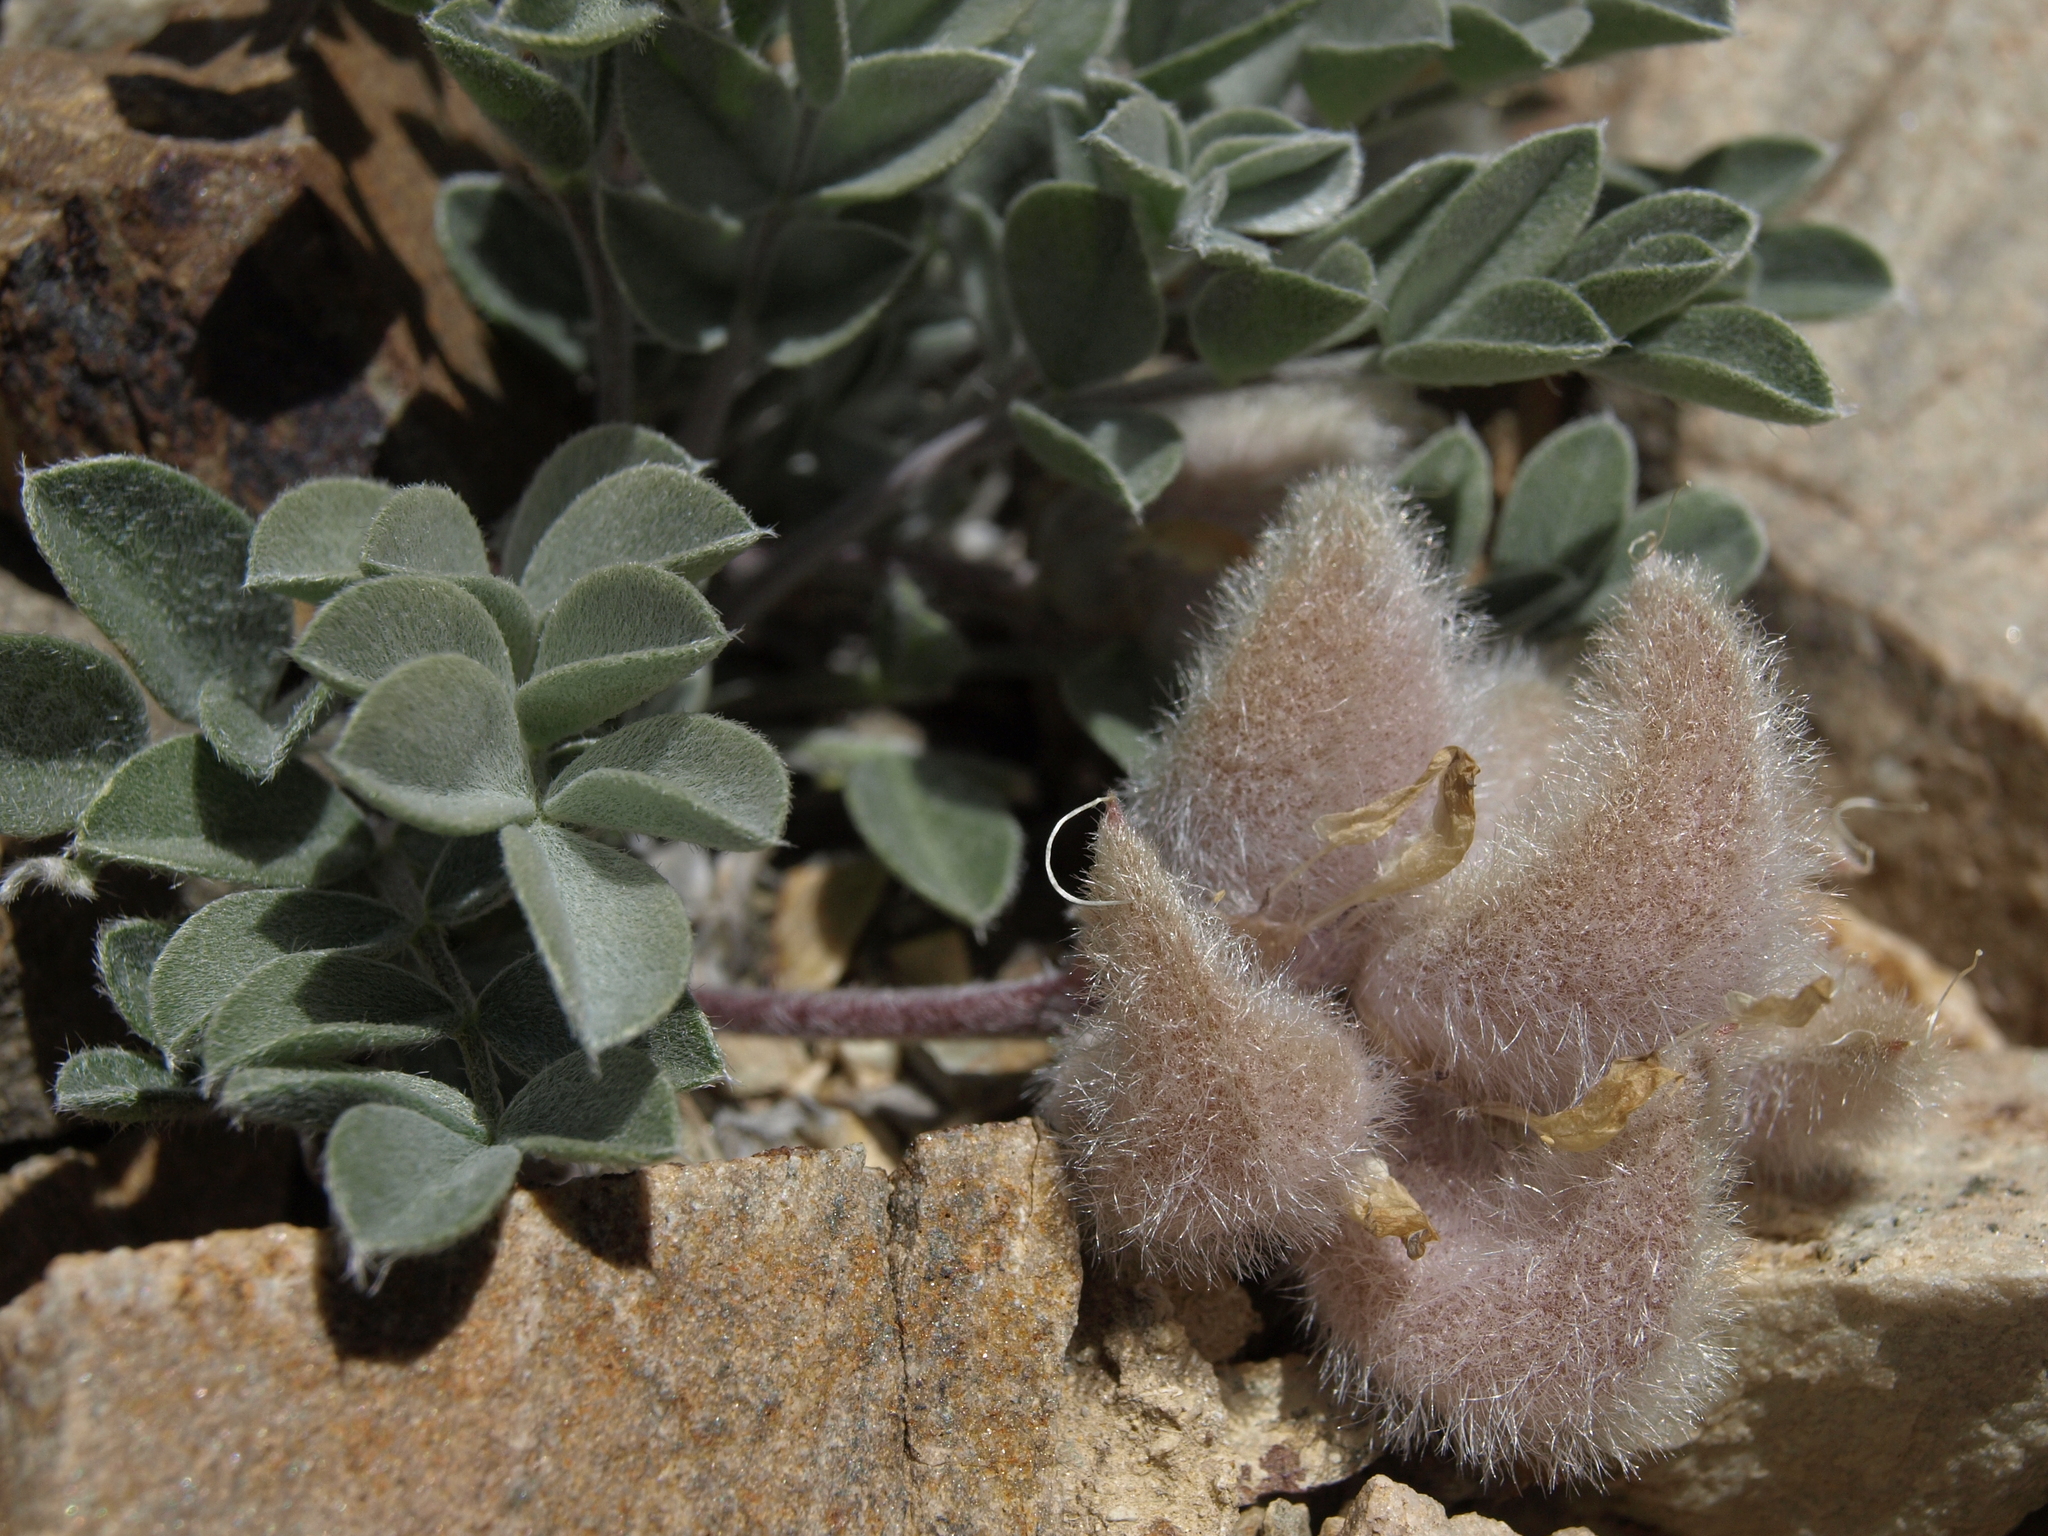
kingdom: Plantae
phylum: Tracheophyta
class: Magnoliopsida
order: Fabales
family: Fabaceae
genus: Astragalus
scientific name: Astragalus newberryi
